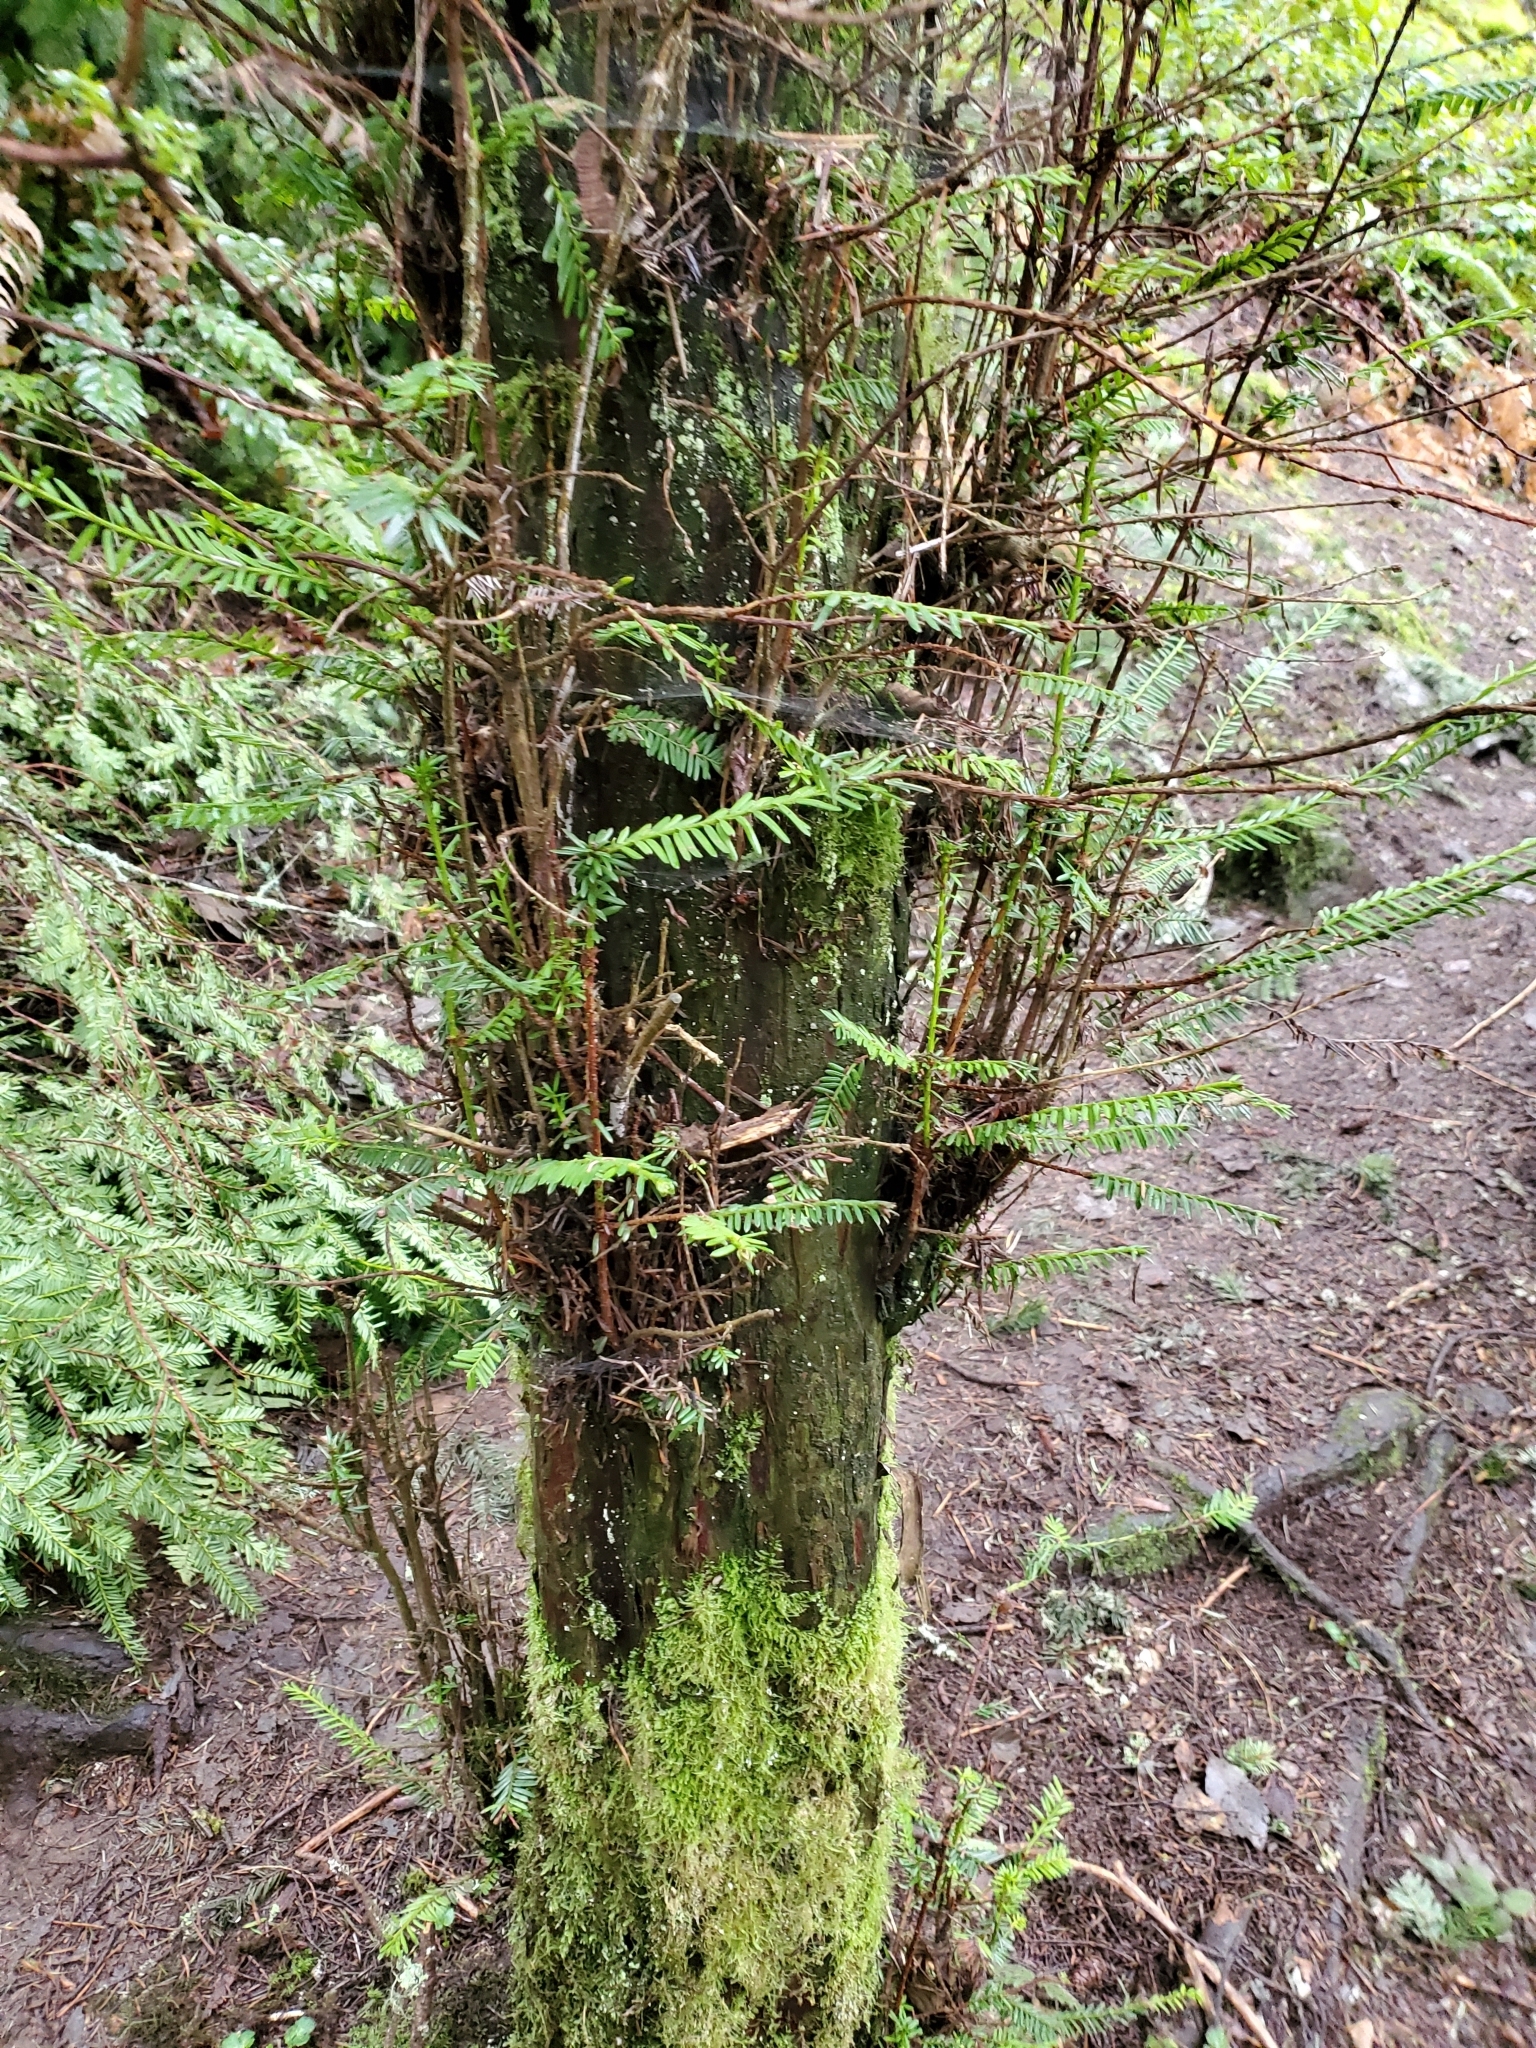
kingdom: Plantae
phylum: Tracheophyta
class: Pinopsida
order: Pinales
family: Taxaceae
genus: Taxus
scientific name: Taxus brevifolia
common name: Pacific yew
